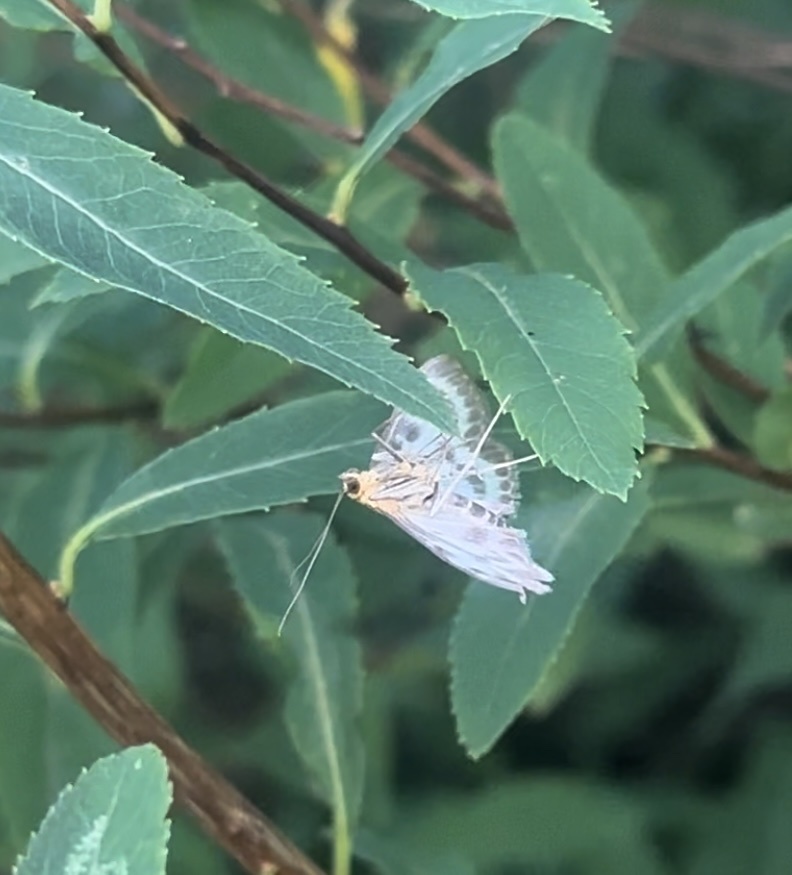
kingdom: Animalia
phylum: Arthropoda
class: Insecta
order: Lepidoptera
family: Crambidae
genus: Anania
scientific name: Anania hortulata
